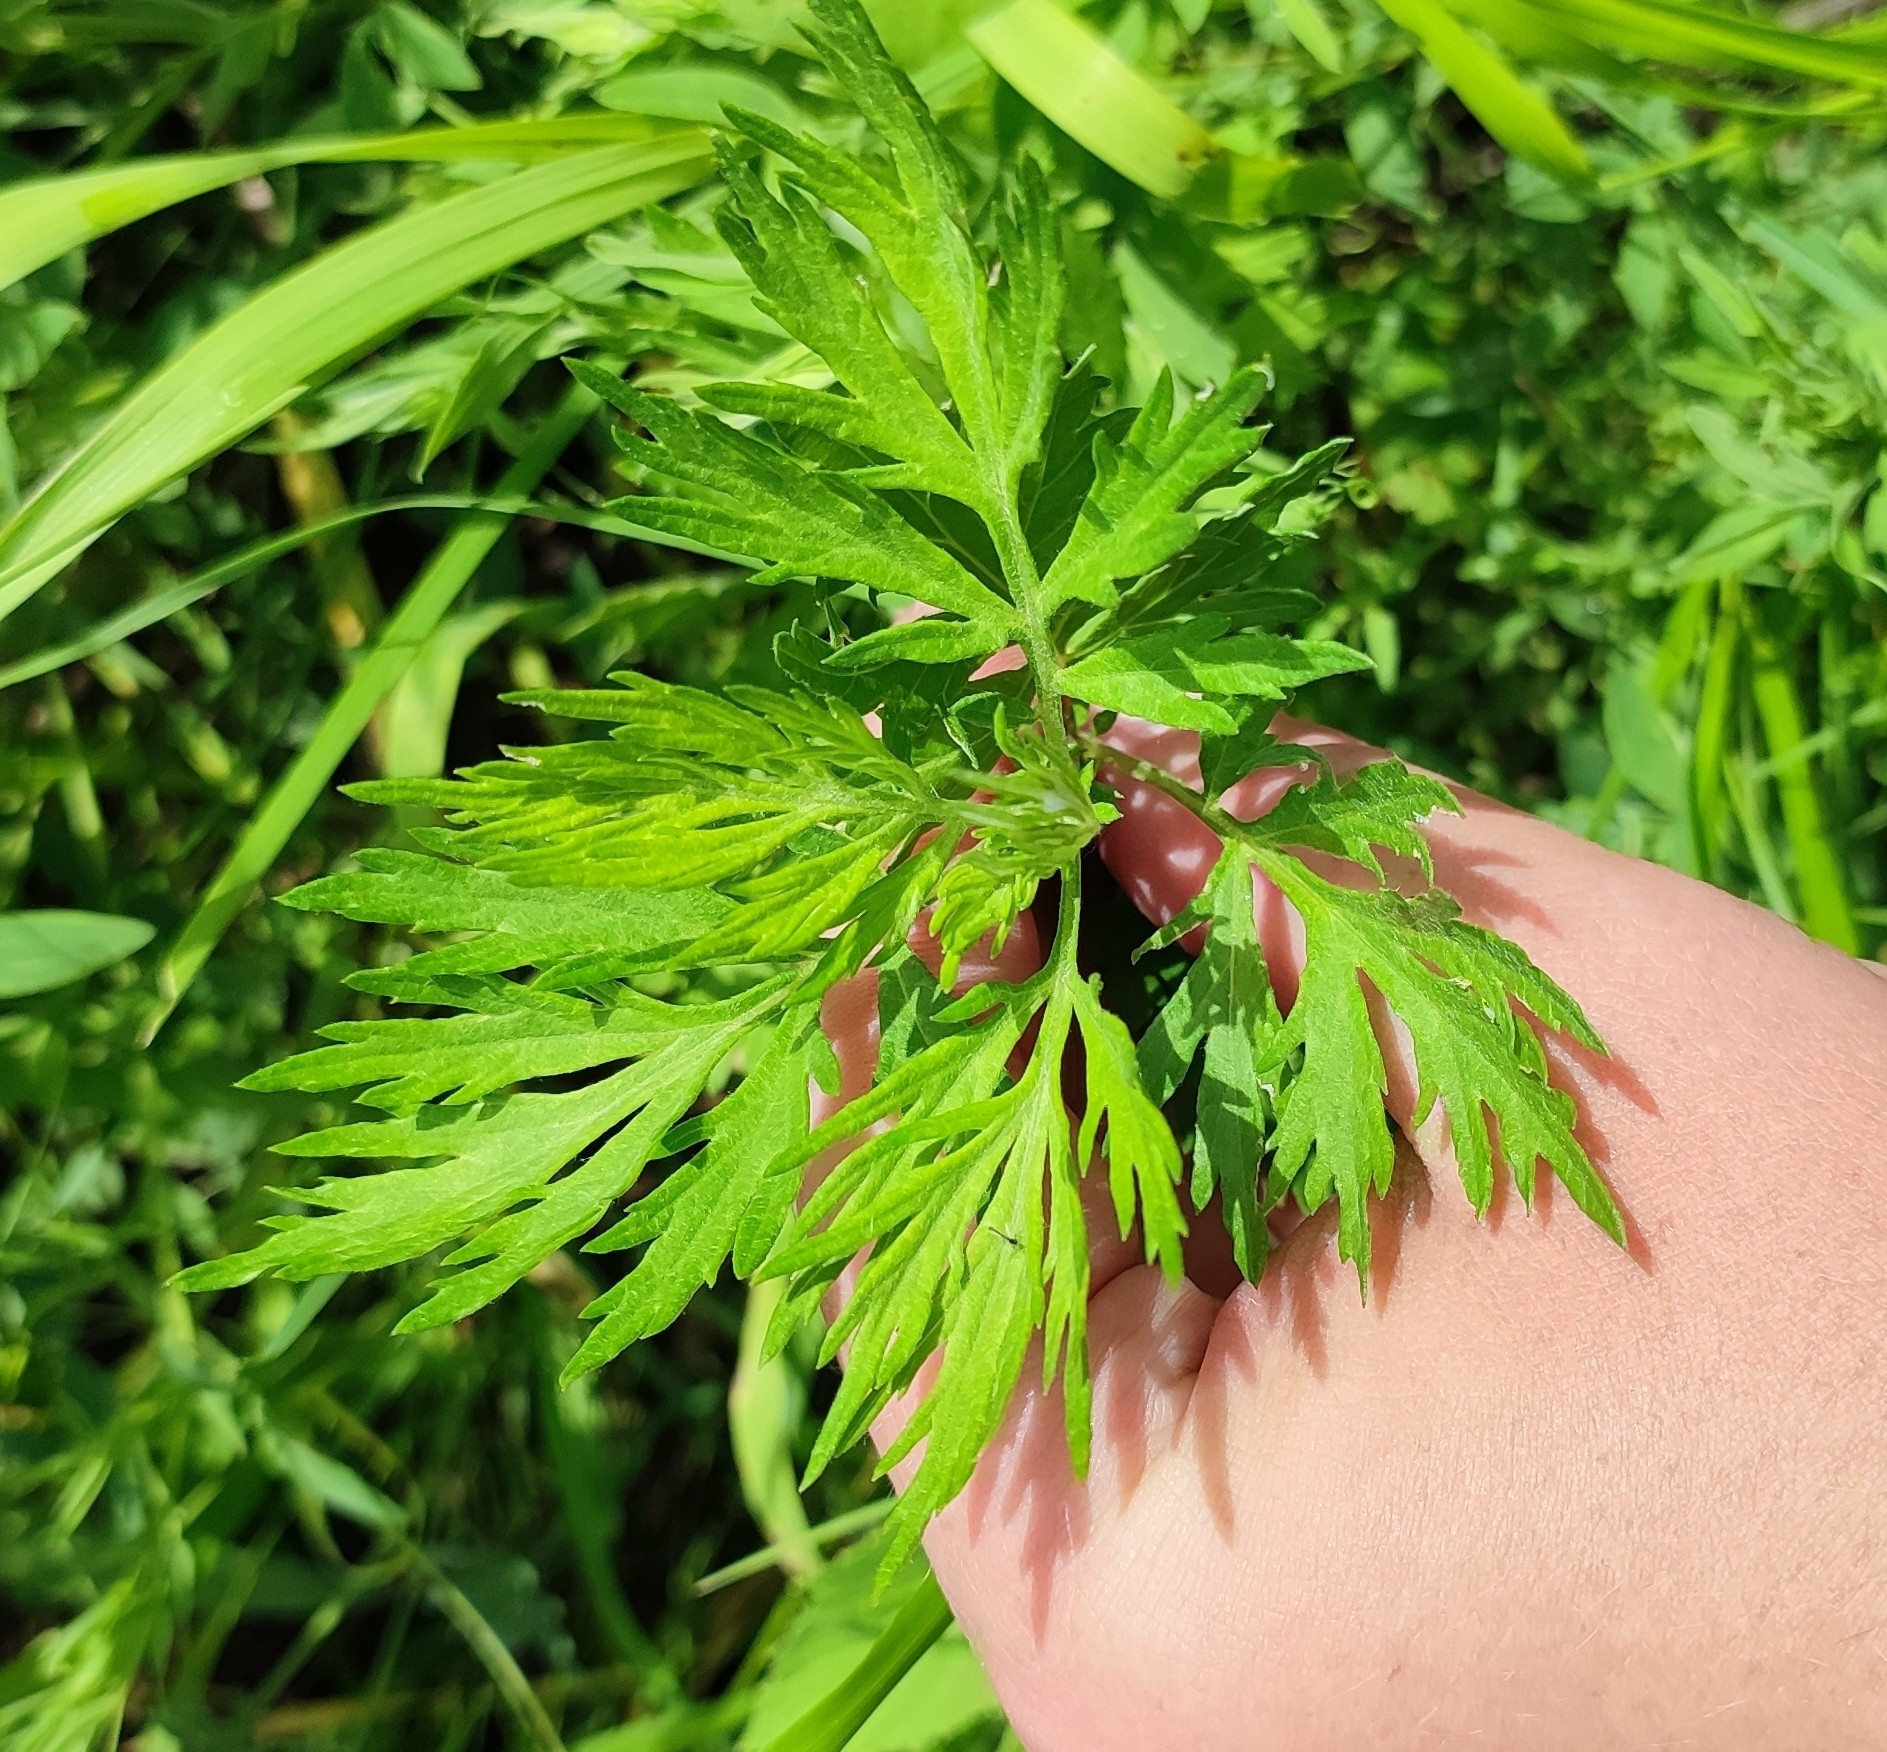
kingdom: Plantae
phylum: Tracheophyta
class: Magnoliopsida
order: Asterales
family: Asteraceae
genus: Artemisia
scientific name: Artemisia vulgaris
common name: Mugwort
